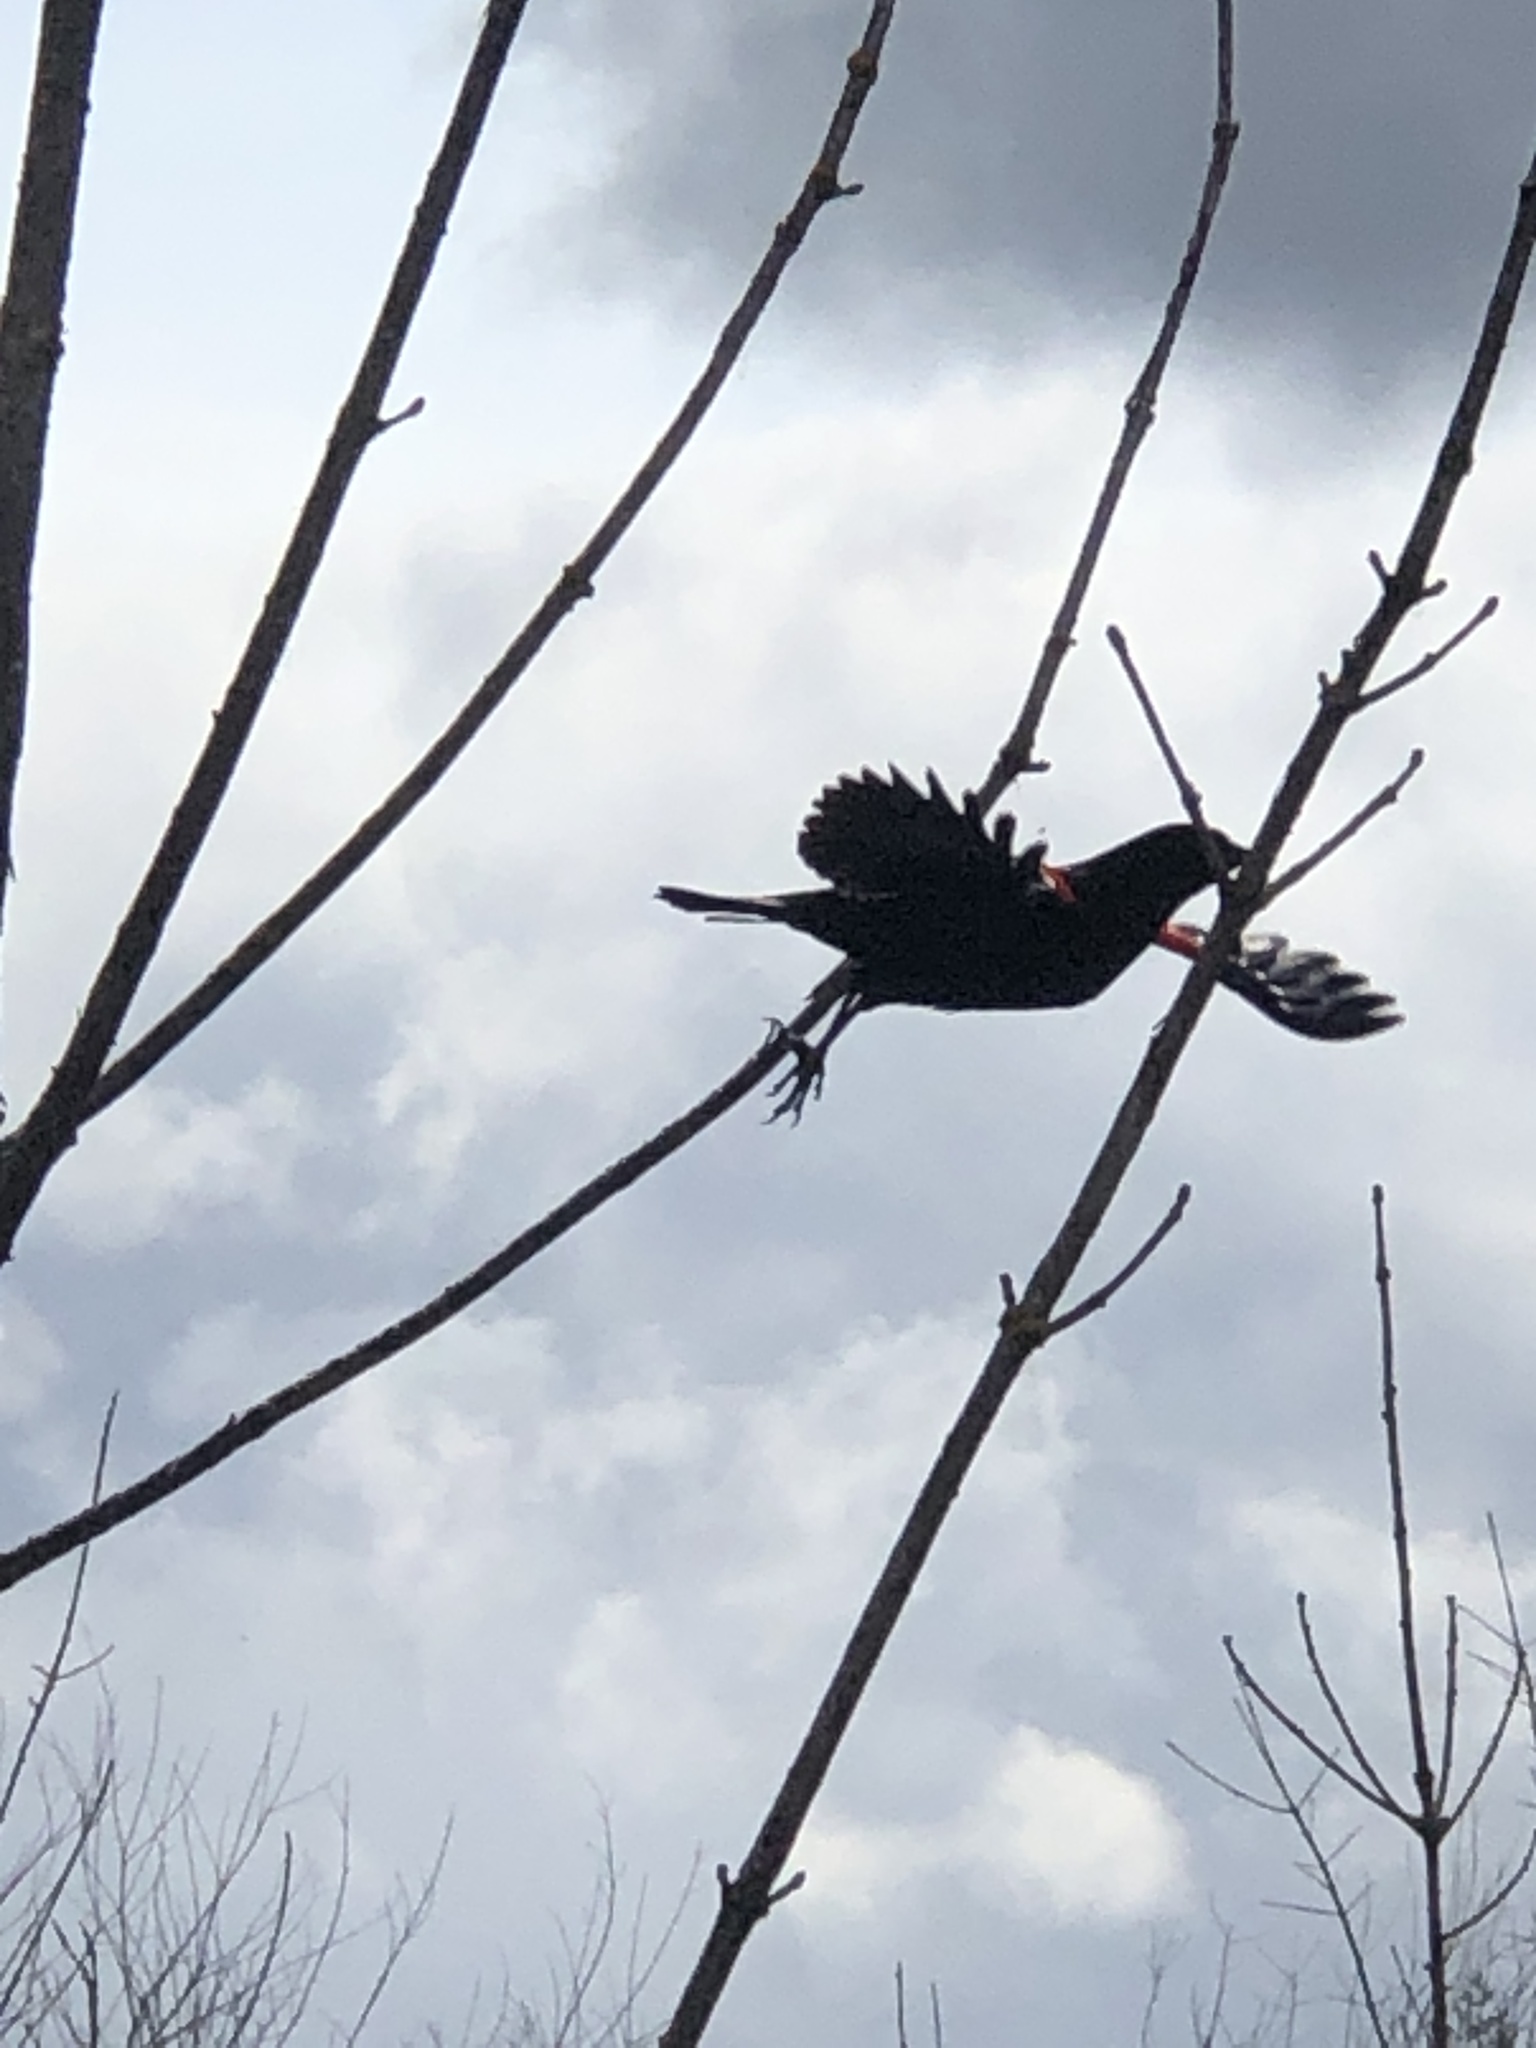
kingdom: Animalia
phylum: Chordata
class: Aves
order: Passeriformes
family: Icteridae
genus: Agelaius
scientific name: Agelaius phoeniceus
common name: Red-winged blackbird
